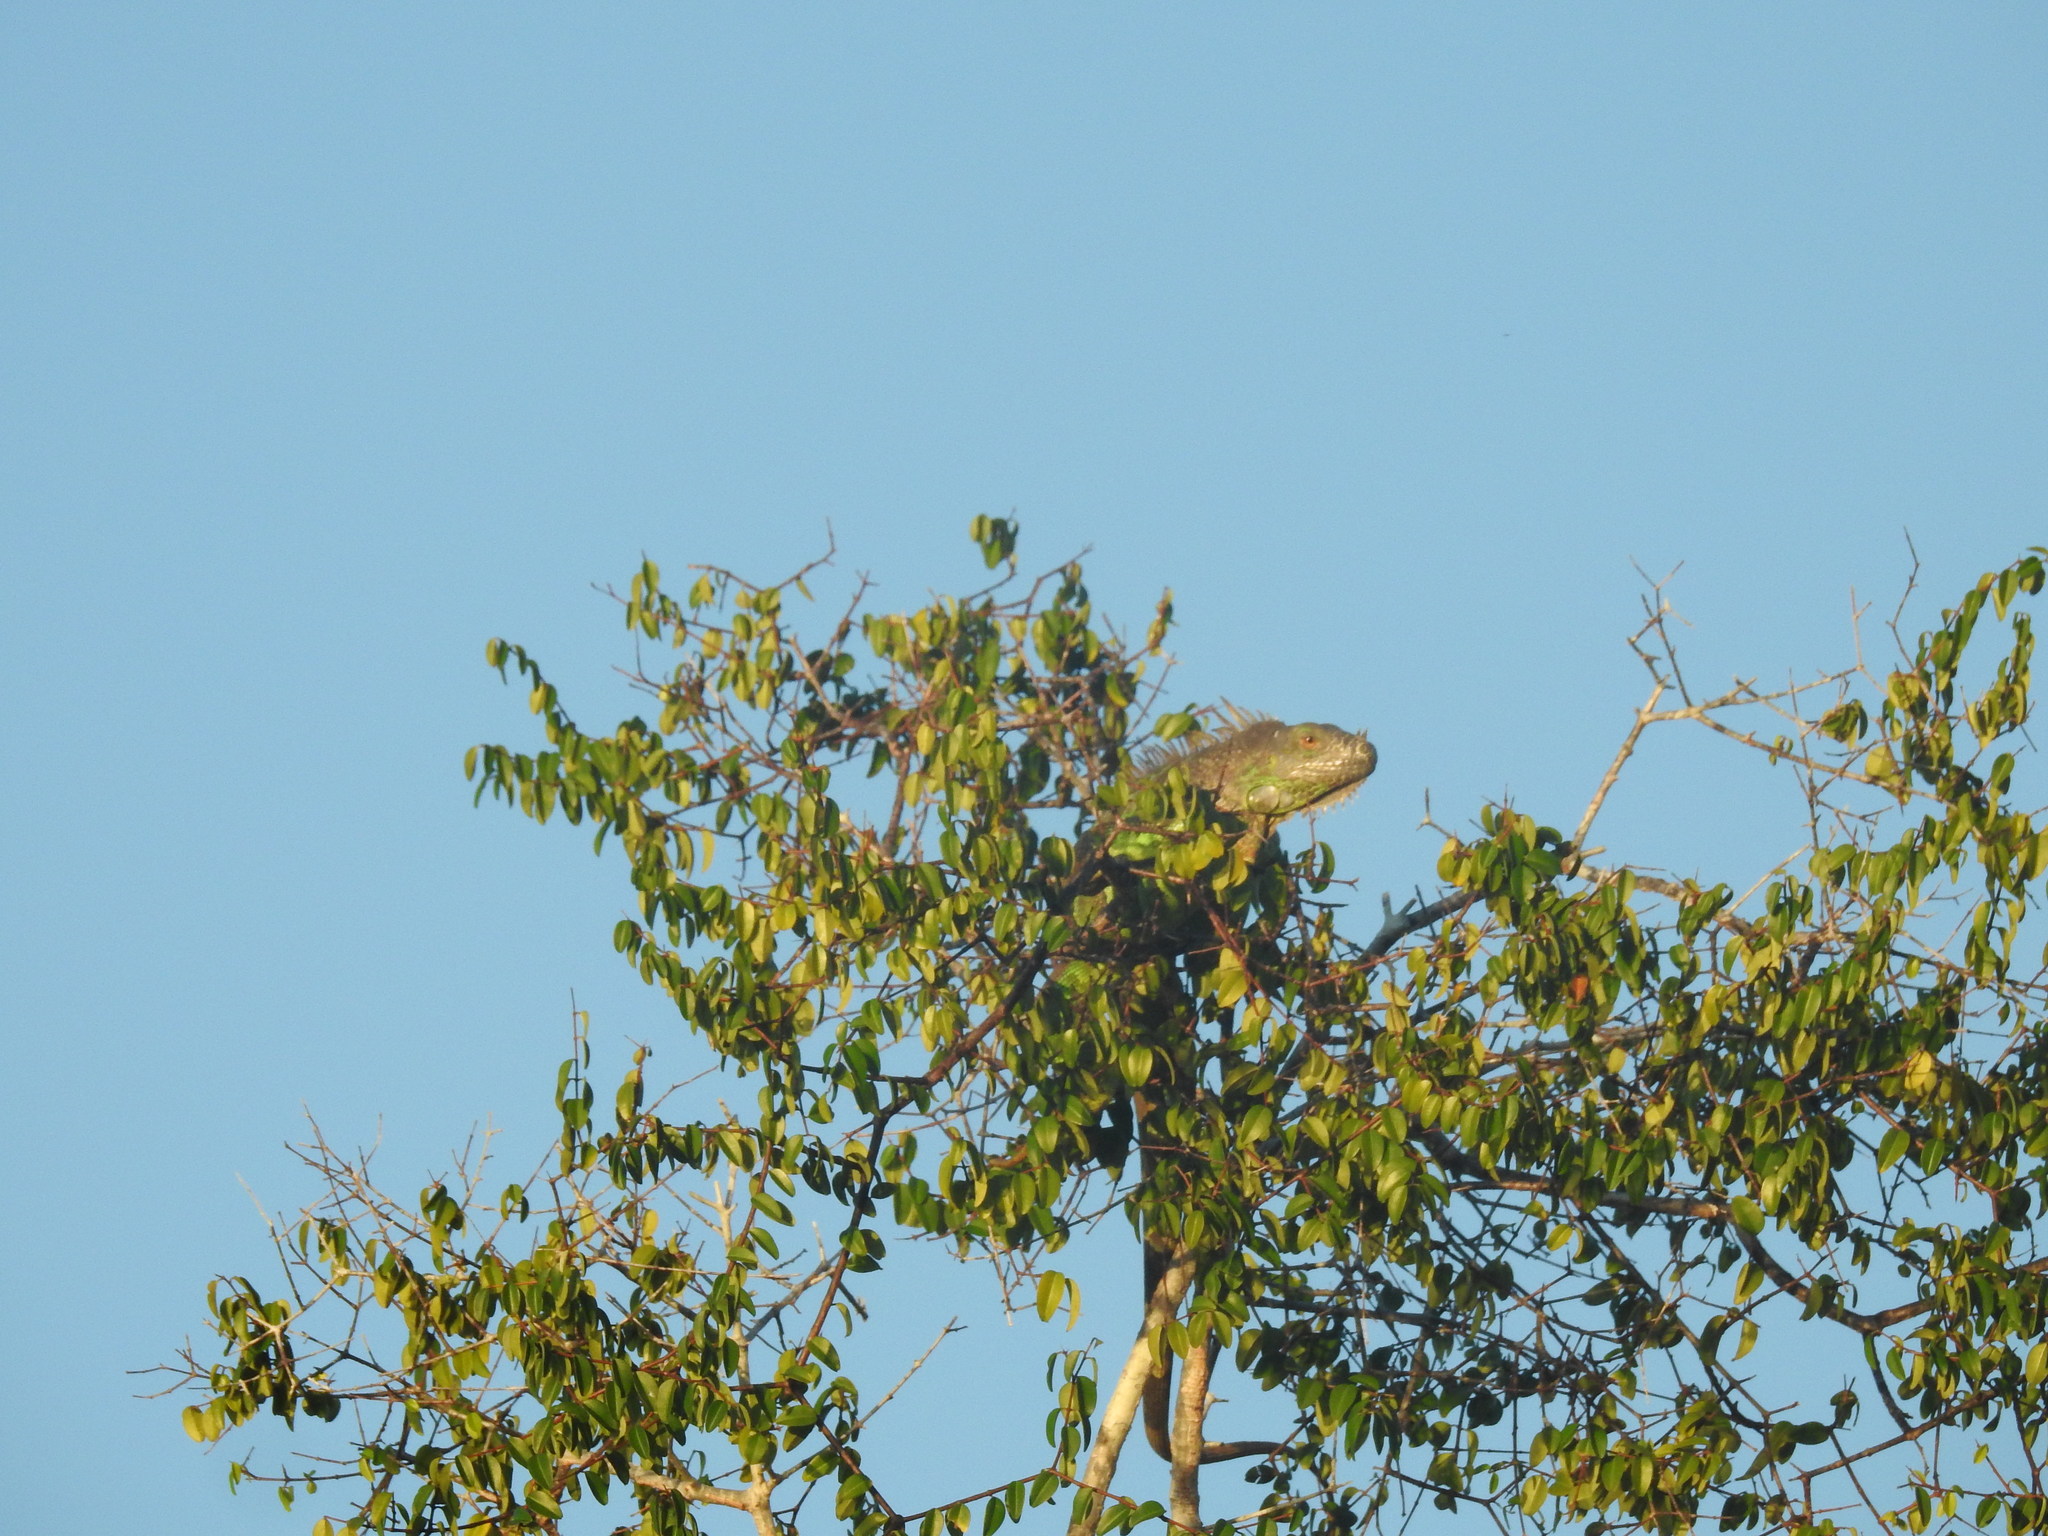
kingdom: Animalia
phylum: Chordata
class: Squamata
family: Iguanidae
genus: Iguana
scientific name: Iguana iguana
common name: Green iguana
